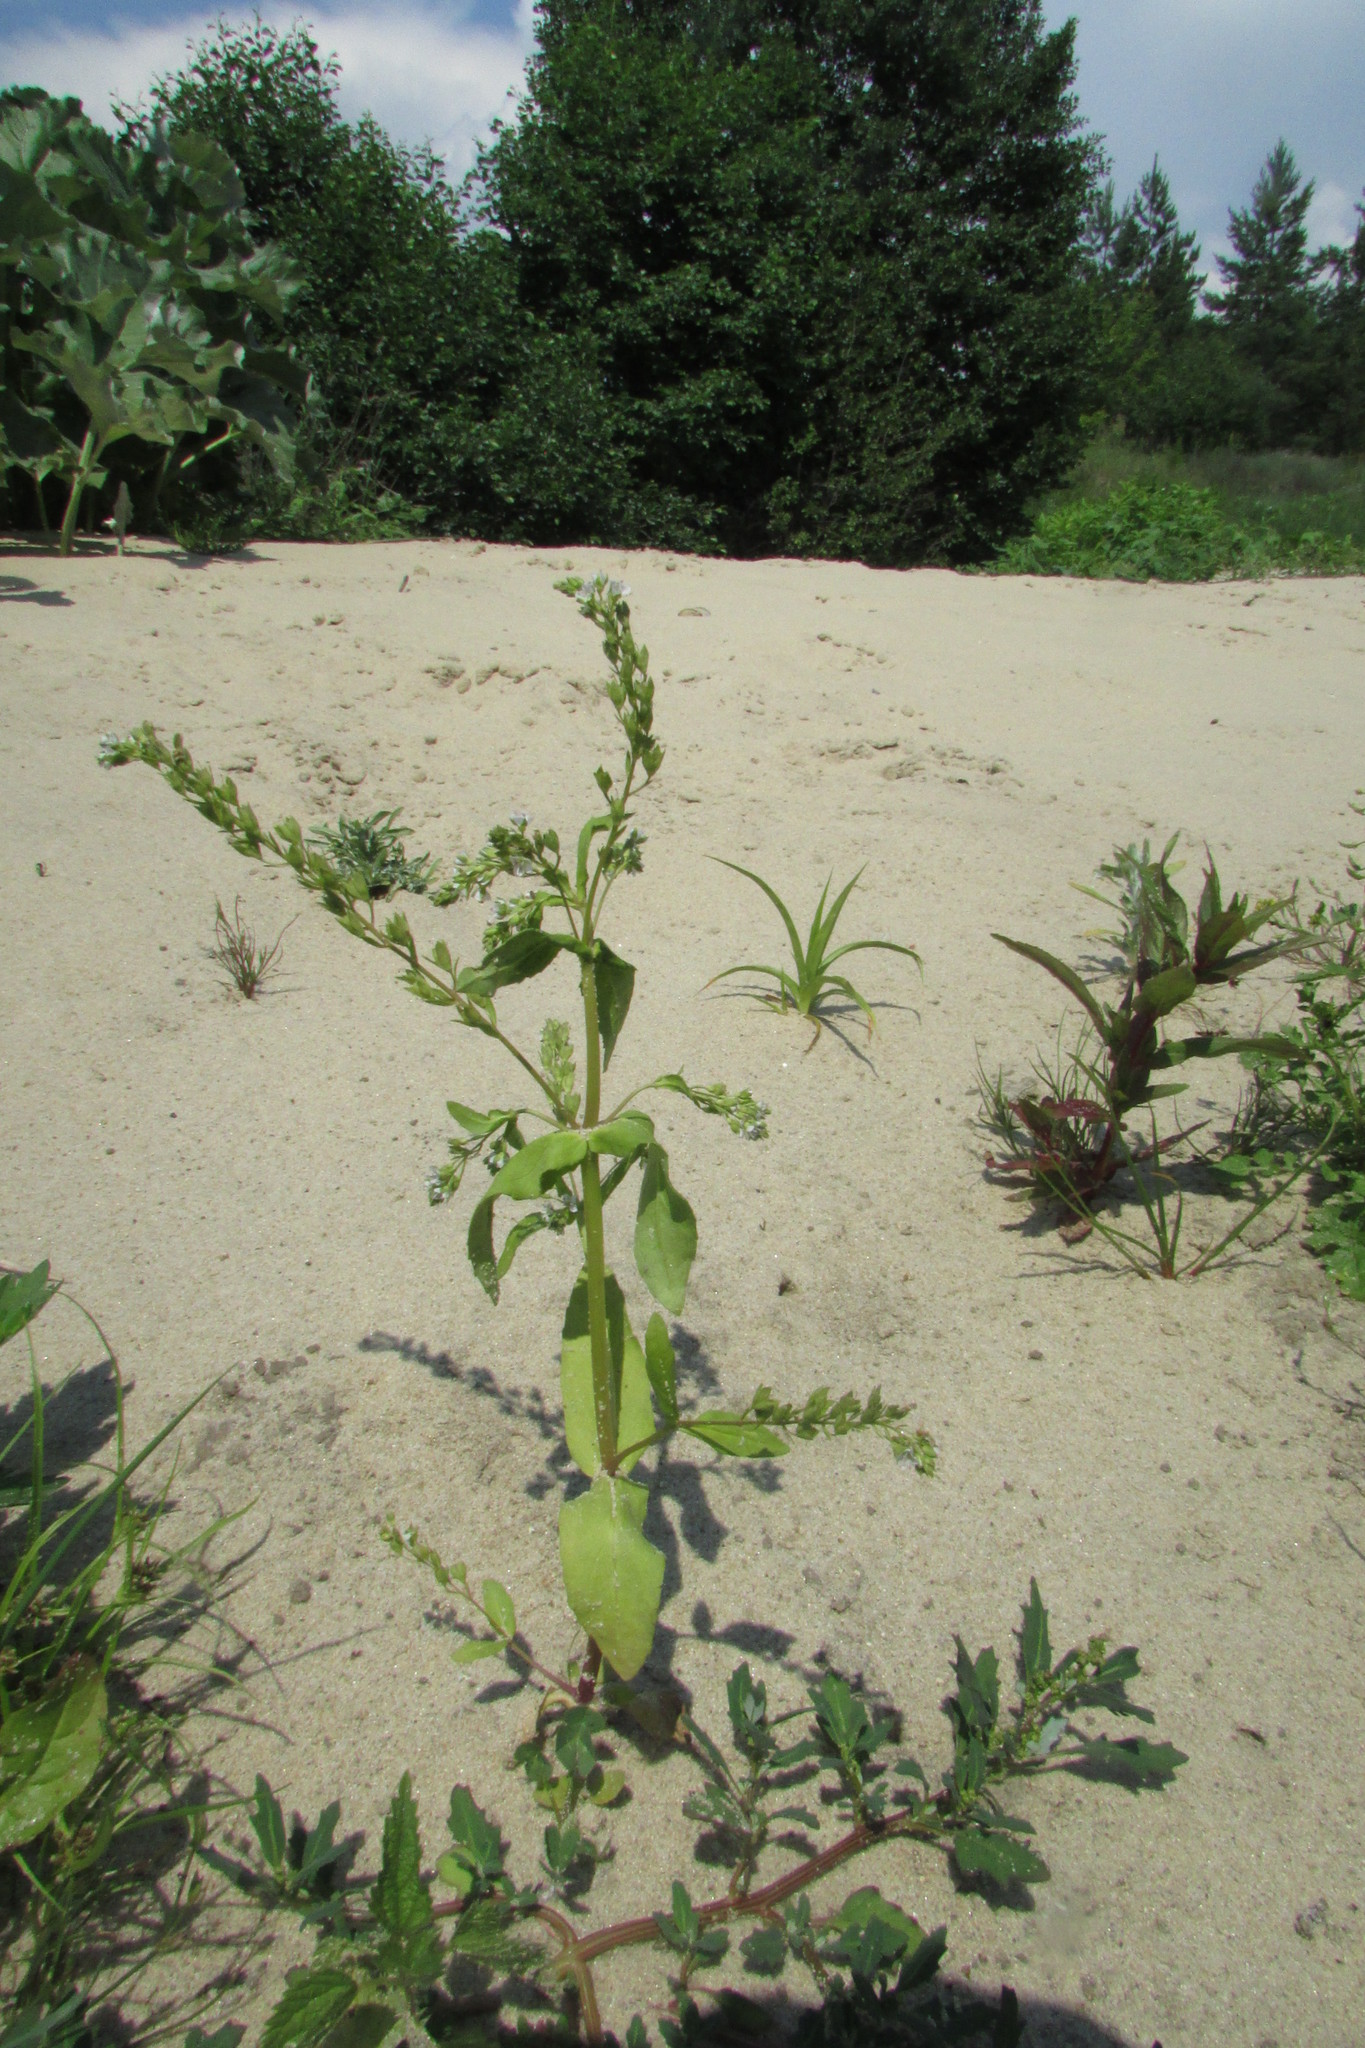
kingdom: Plantae
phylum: Tracheophyta
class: Magnoliopsida
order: Lamiales
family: Plantaginaceae
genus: Veronica
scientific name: Veronica anagallis-aquatica
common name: Water speedwell
